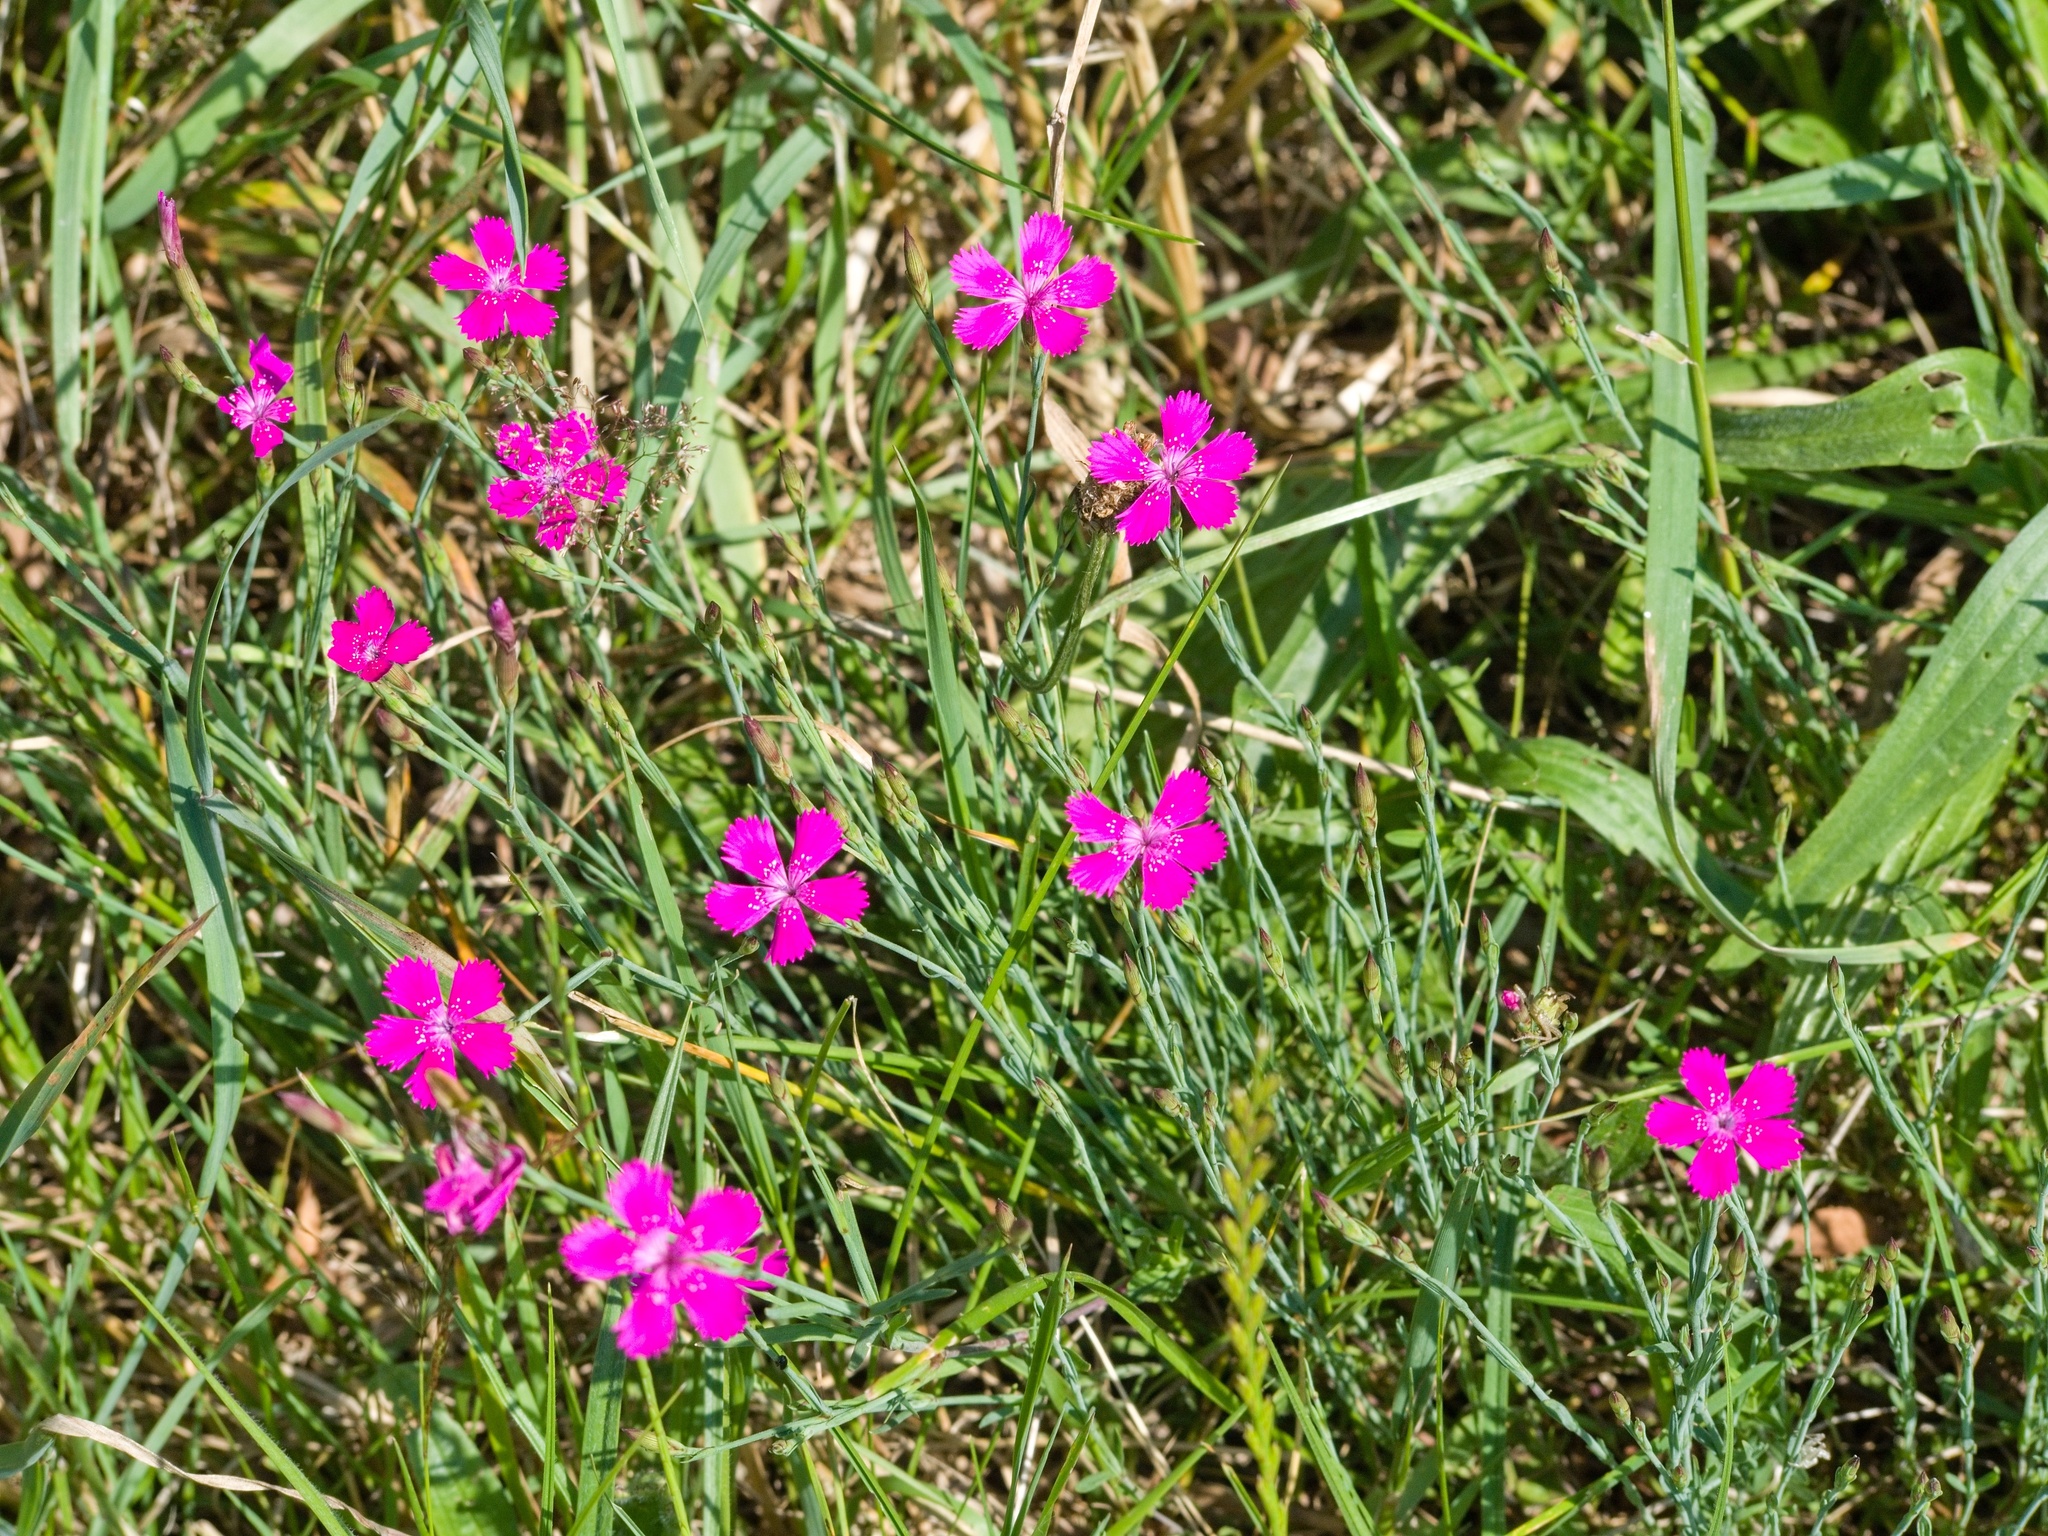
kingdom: Plantae
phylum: Tracheophyta
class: Magnoliopsida
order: Caryophyllales
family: Caryophyllaceae
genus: Dianthus
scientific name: Dianthus deltoides
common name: Maiden pink
